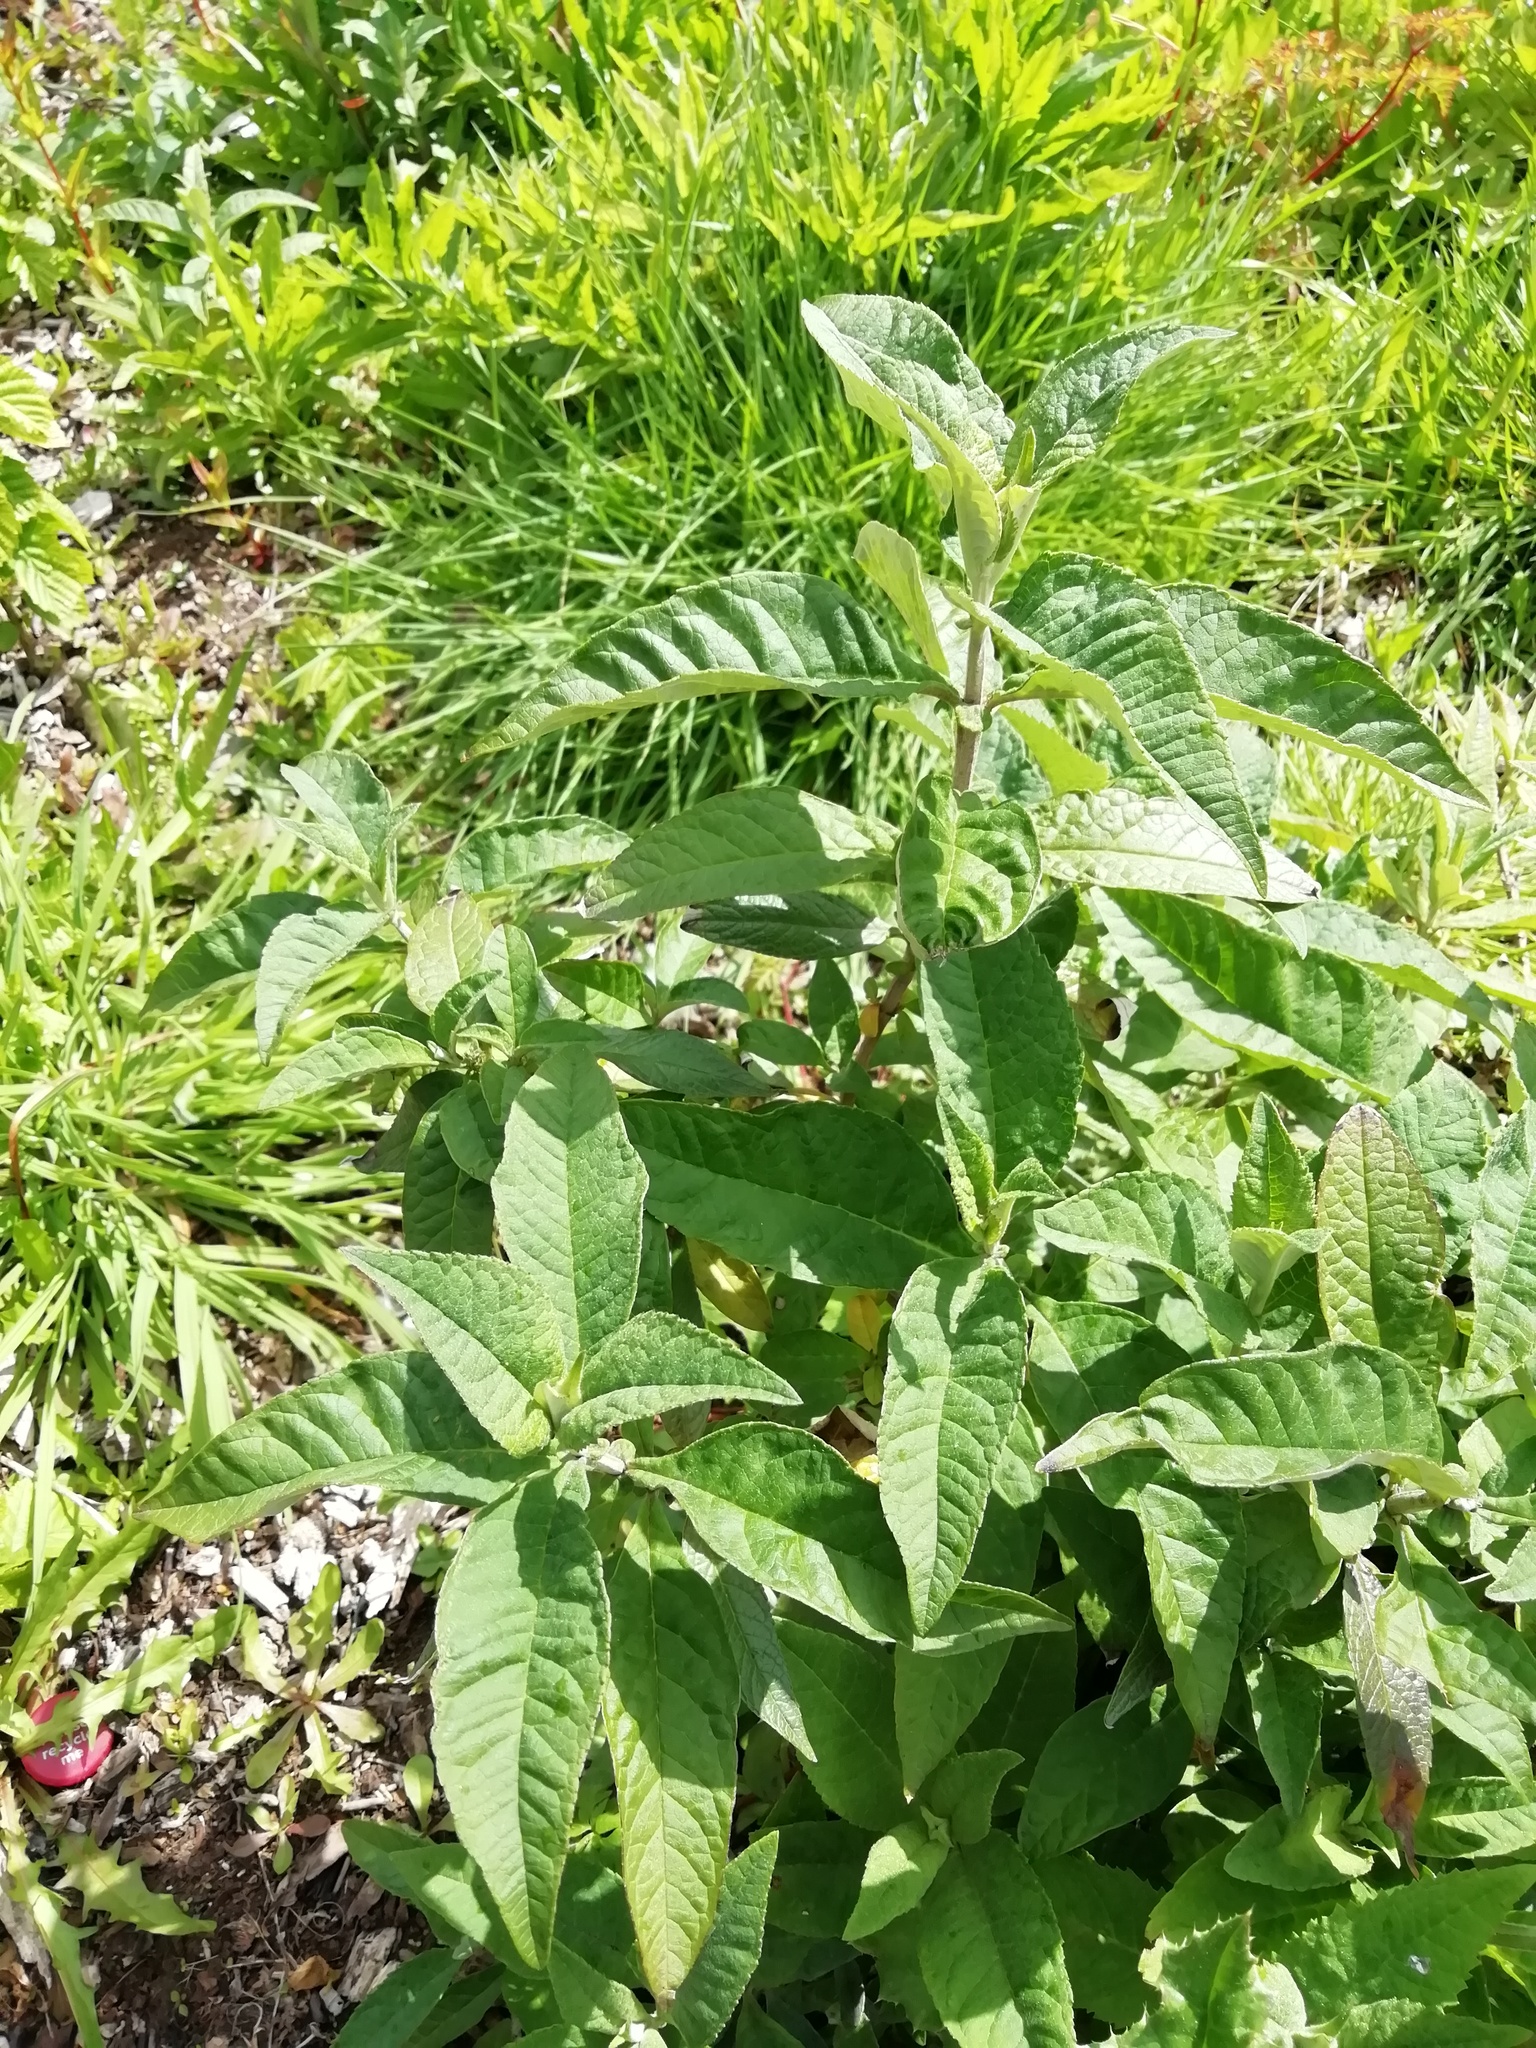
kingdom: Plantae
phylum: Tracheophyta
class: Magnoliopsida
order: Lamiales
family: Scrophulariaceae
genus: Buddleja
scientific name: Buddleja davidii
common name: Butterfly-bush
